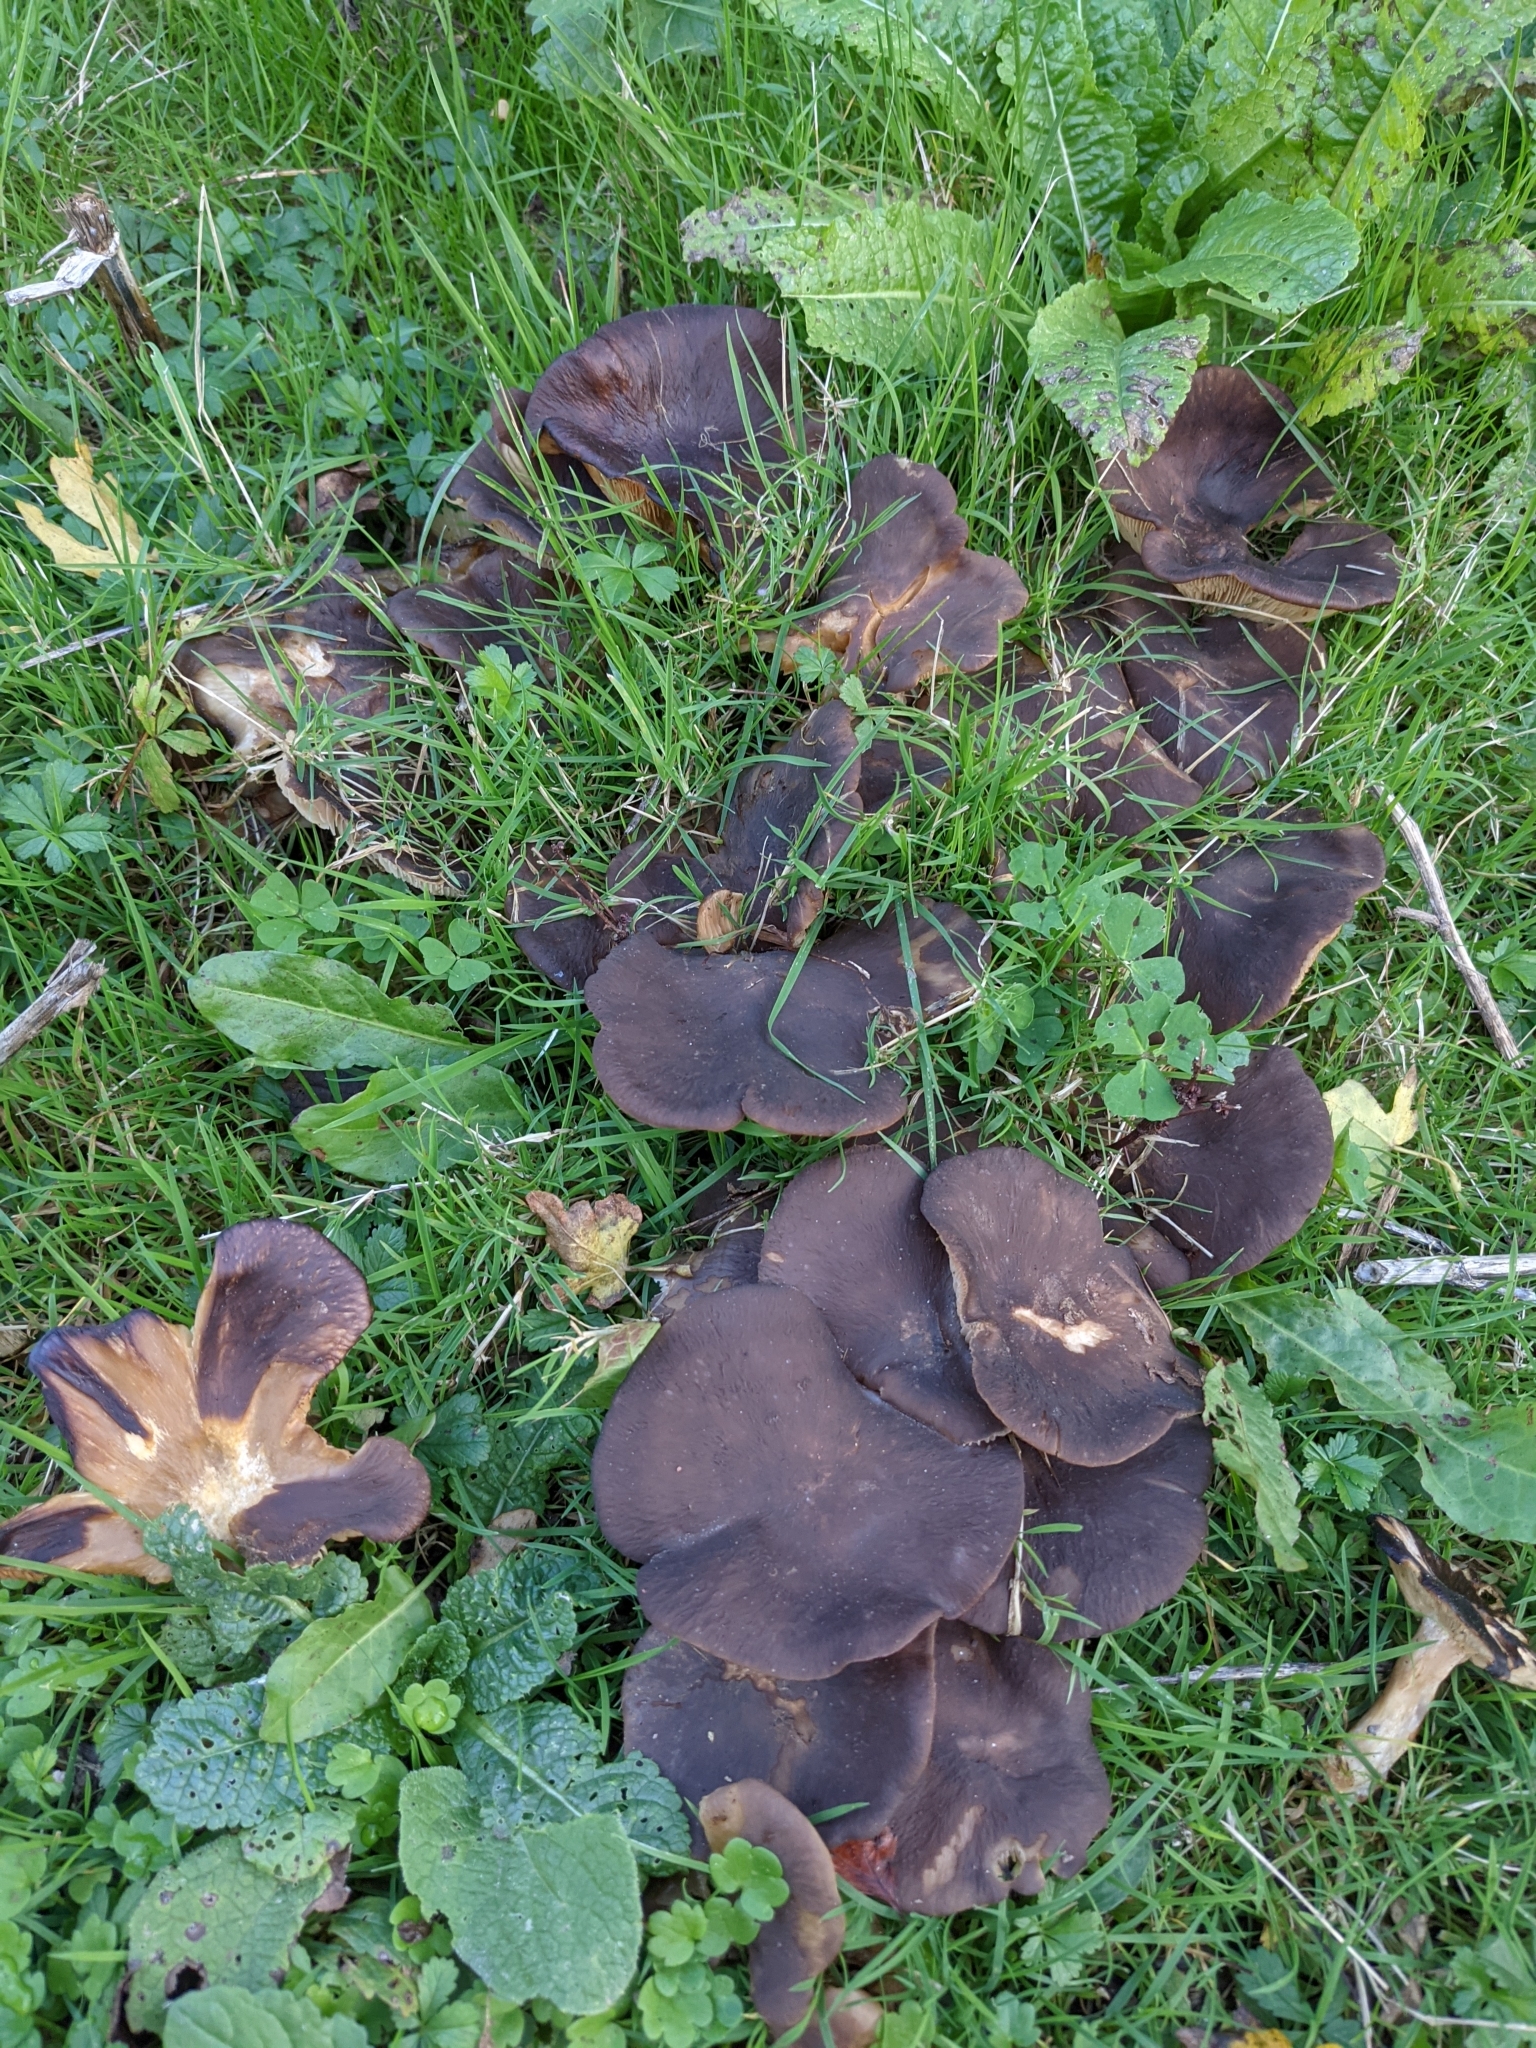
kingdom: Fungi
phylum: Basidiomycota
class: Agaricomycetes
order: Agaricales
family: Lyophyllaceae
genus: Lyophyllum
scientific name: Lyophyllum decastes
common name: Clustered domecap
